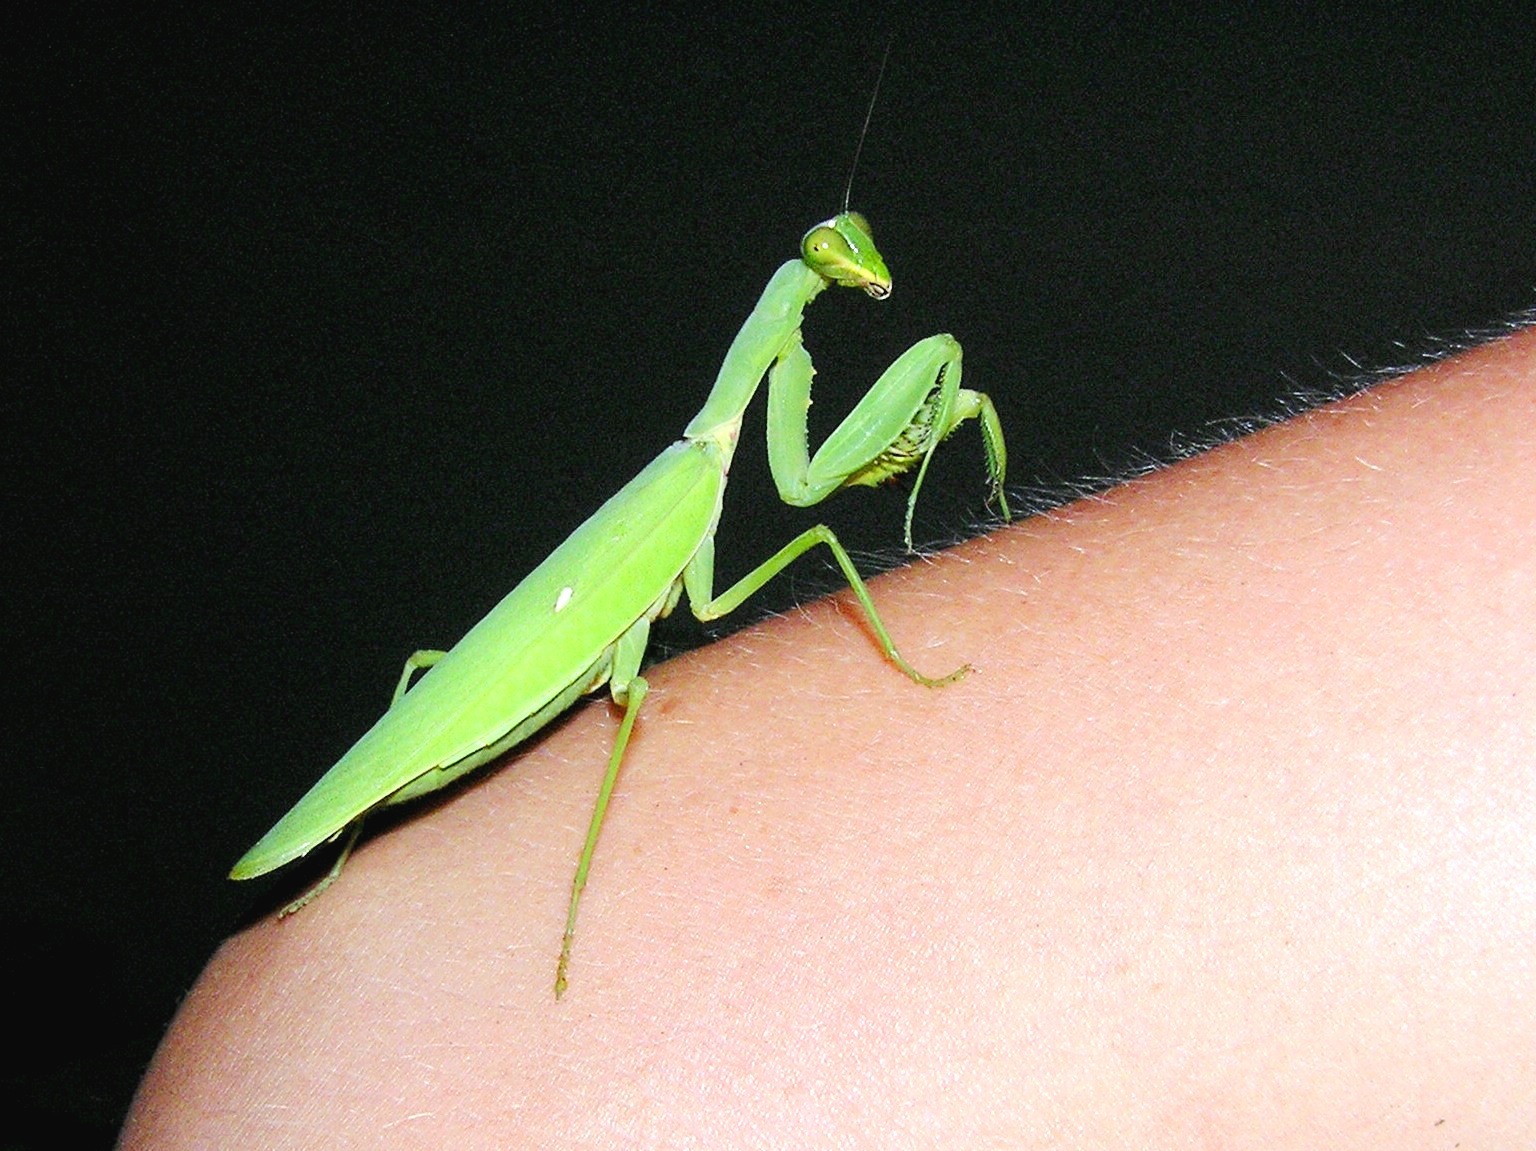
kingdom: Animalia
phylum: Arthropoda
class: Insecta
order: Mantodea
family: Mantidae
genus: Hierodula
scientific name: Hierodula patellifera
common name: Asian mantis
